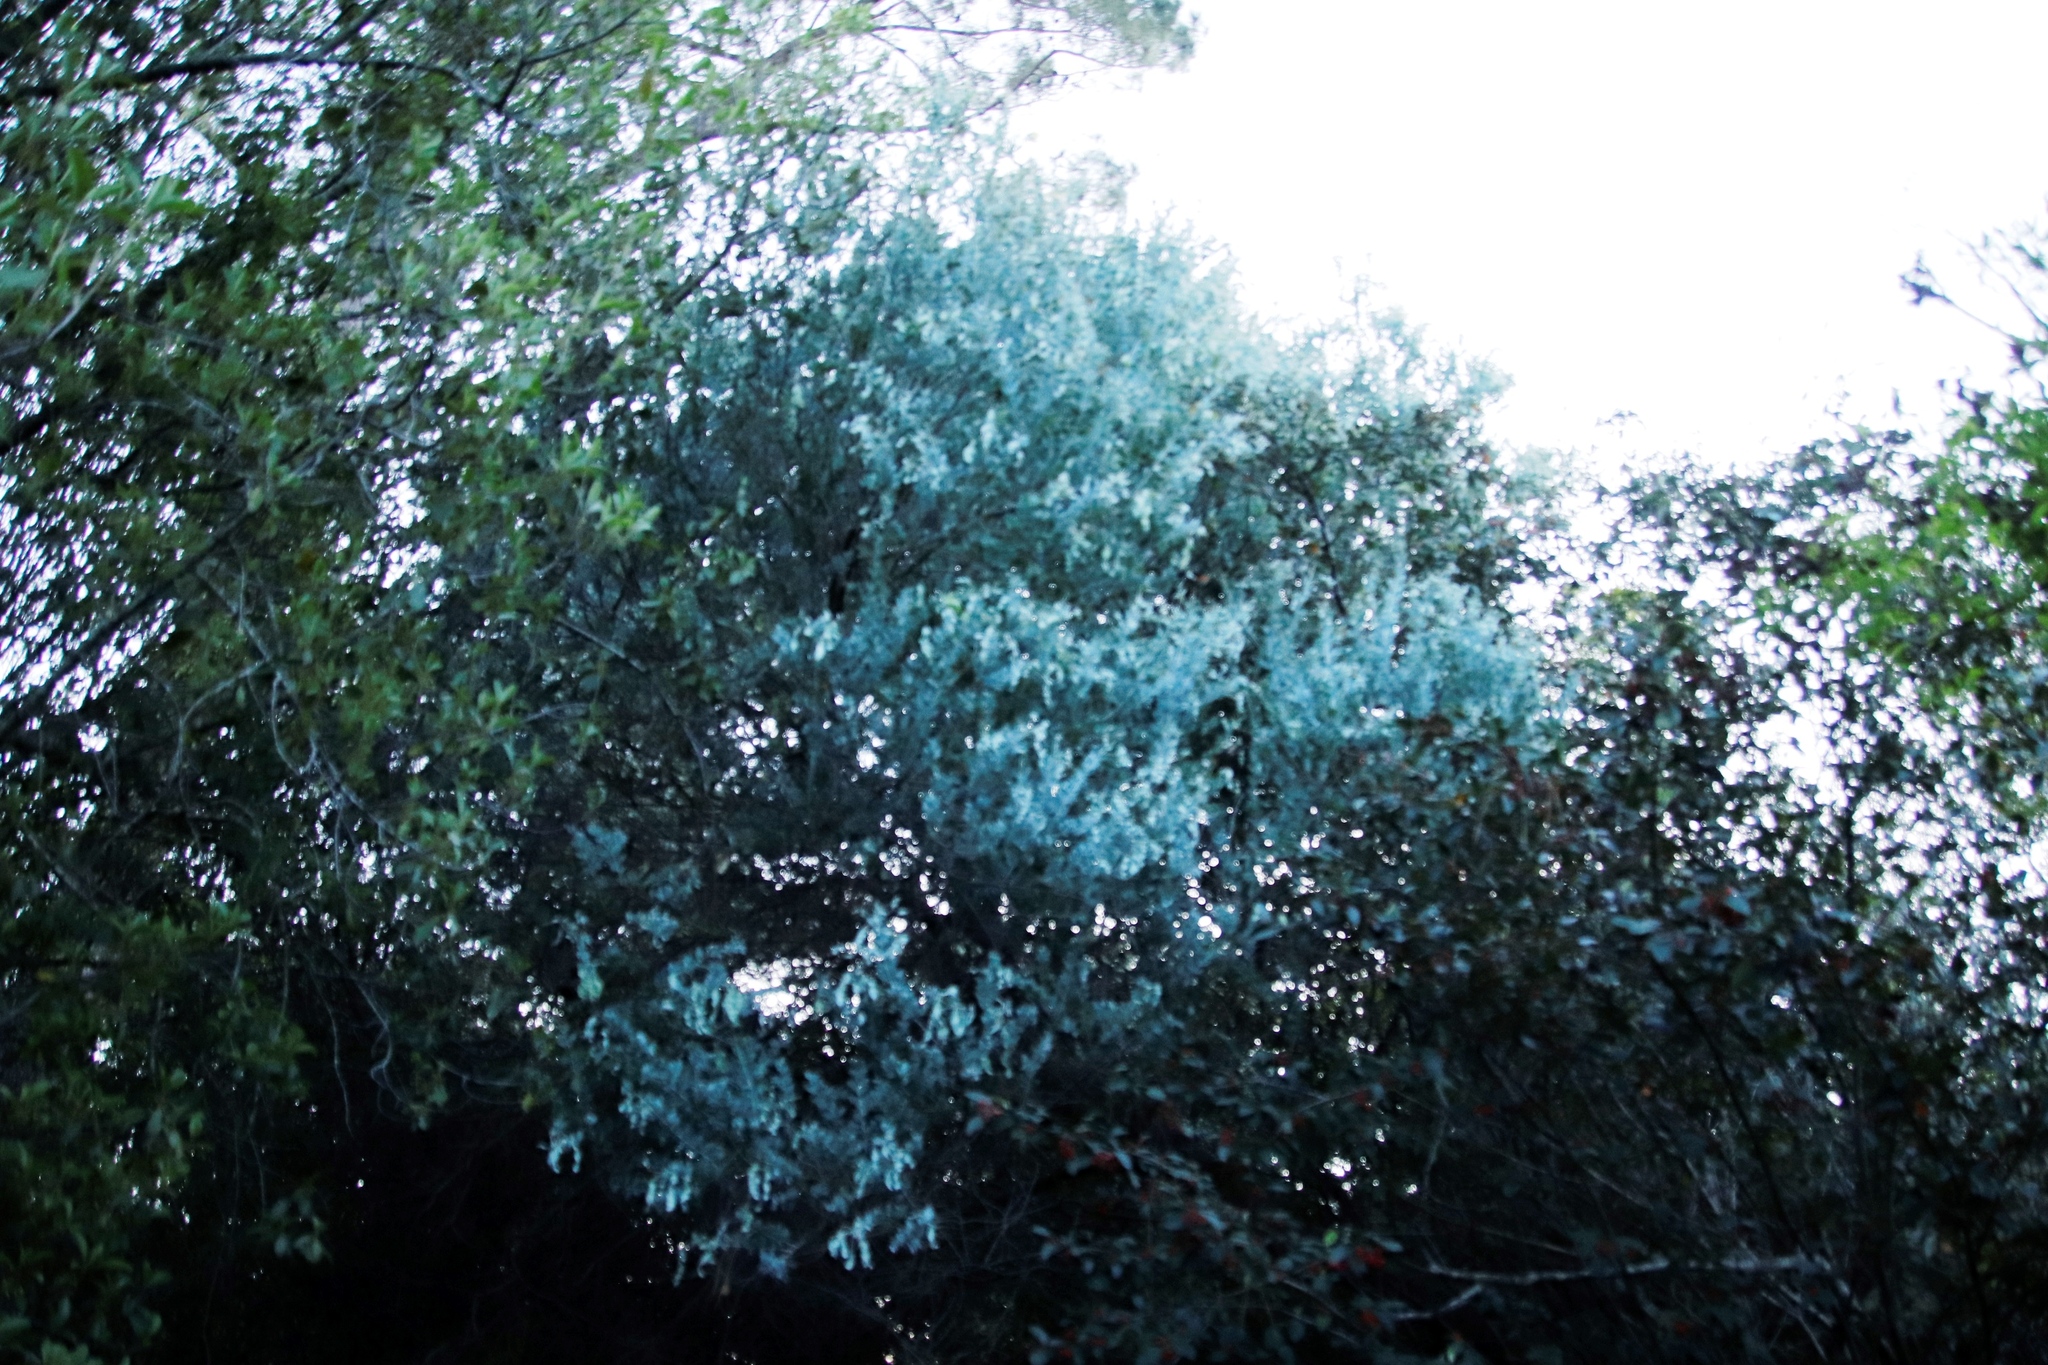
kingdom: Plantae
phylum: Tracheophyta
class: Magnoliopsida
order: Fabales
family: Fabaceae
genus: Acacia
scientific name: Acacia podalyriifolia
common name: Pearl wattle
